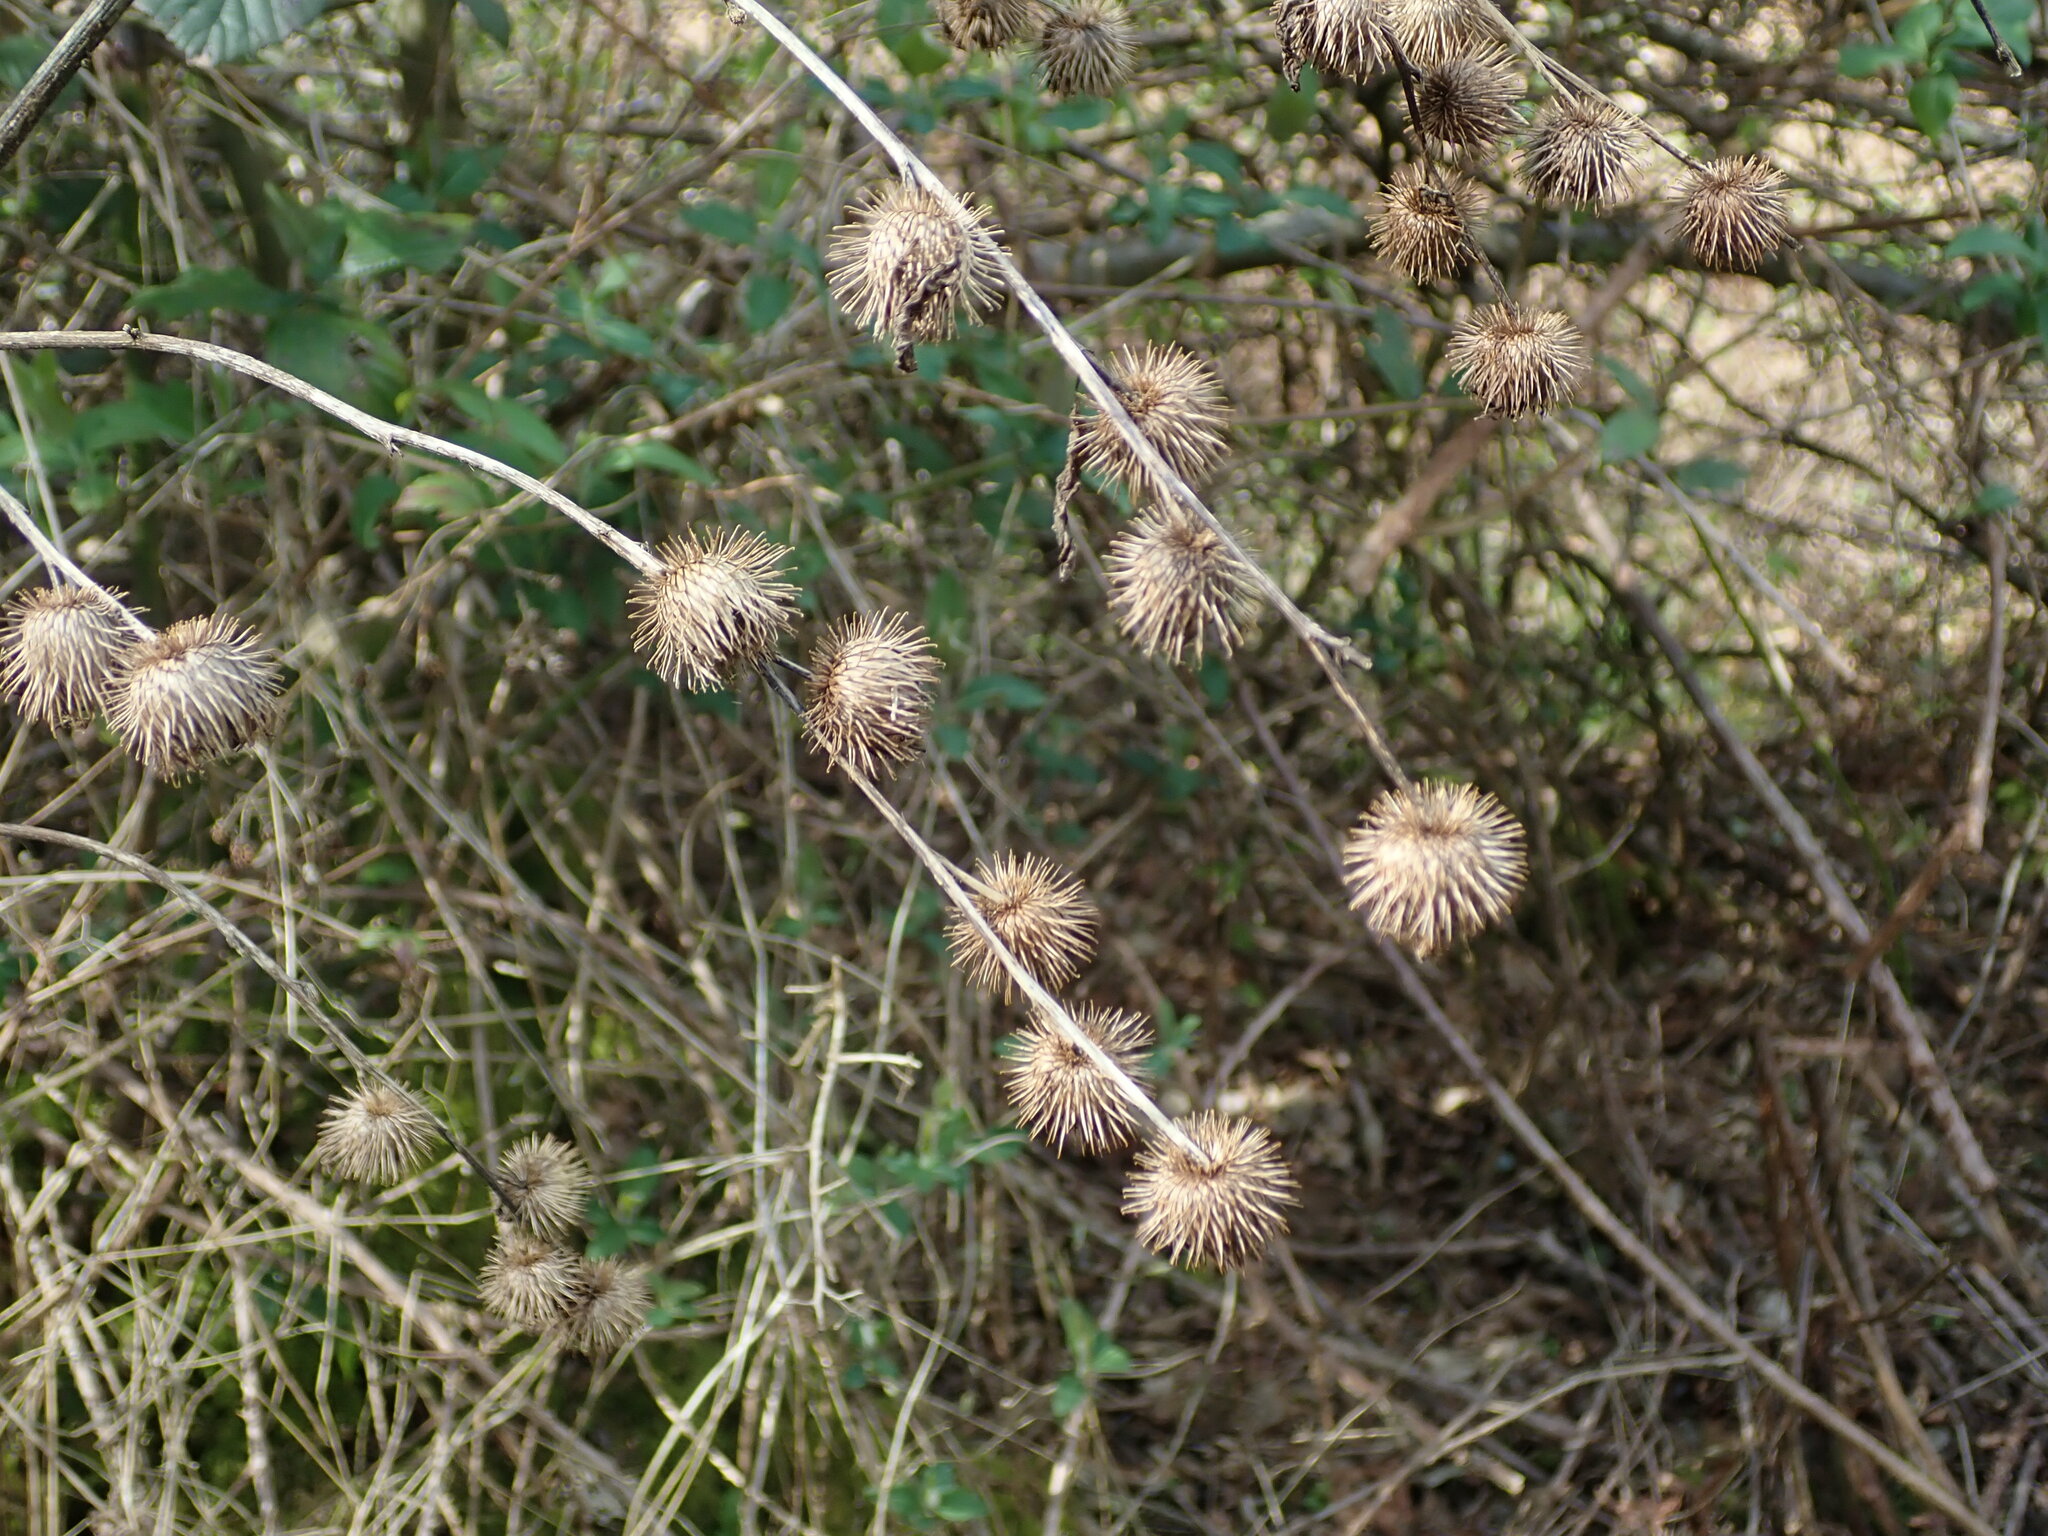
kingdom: Plantae
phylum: Tracheophyta
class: Magnoliopsida
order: Asterales
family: Asteraceae
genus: Arctium
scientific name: Arctium minus
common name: Lesser burdock
